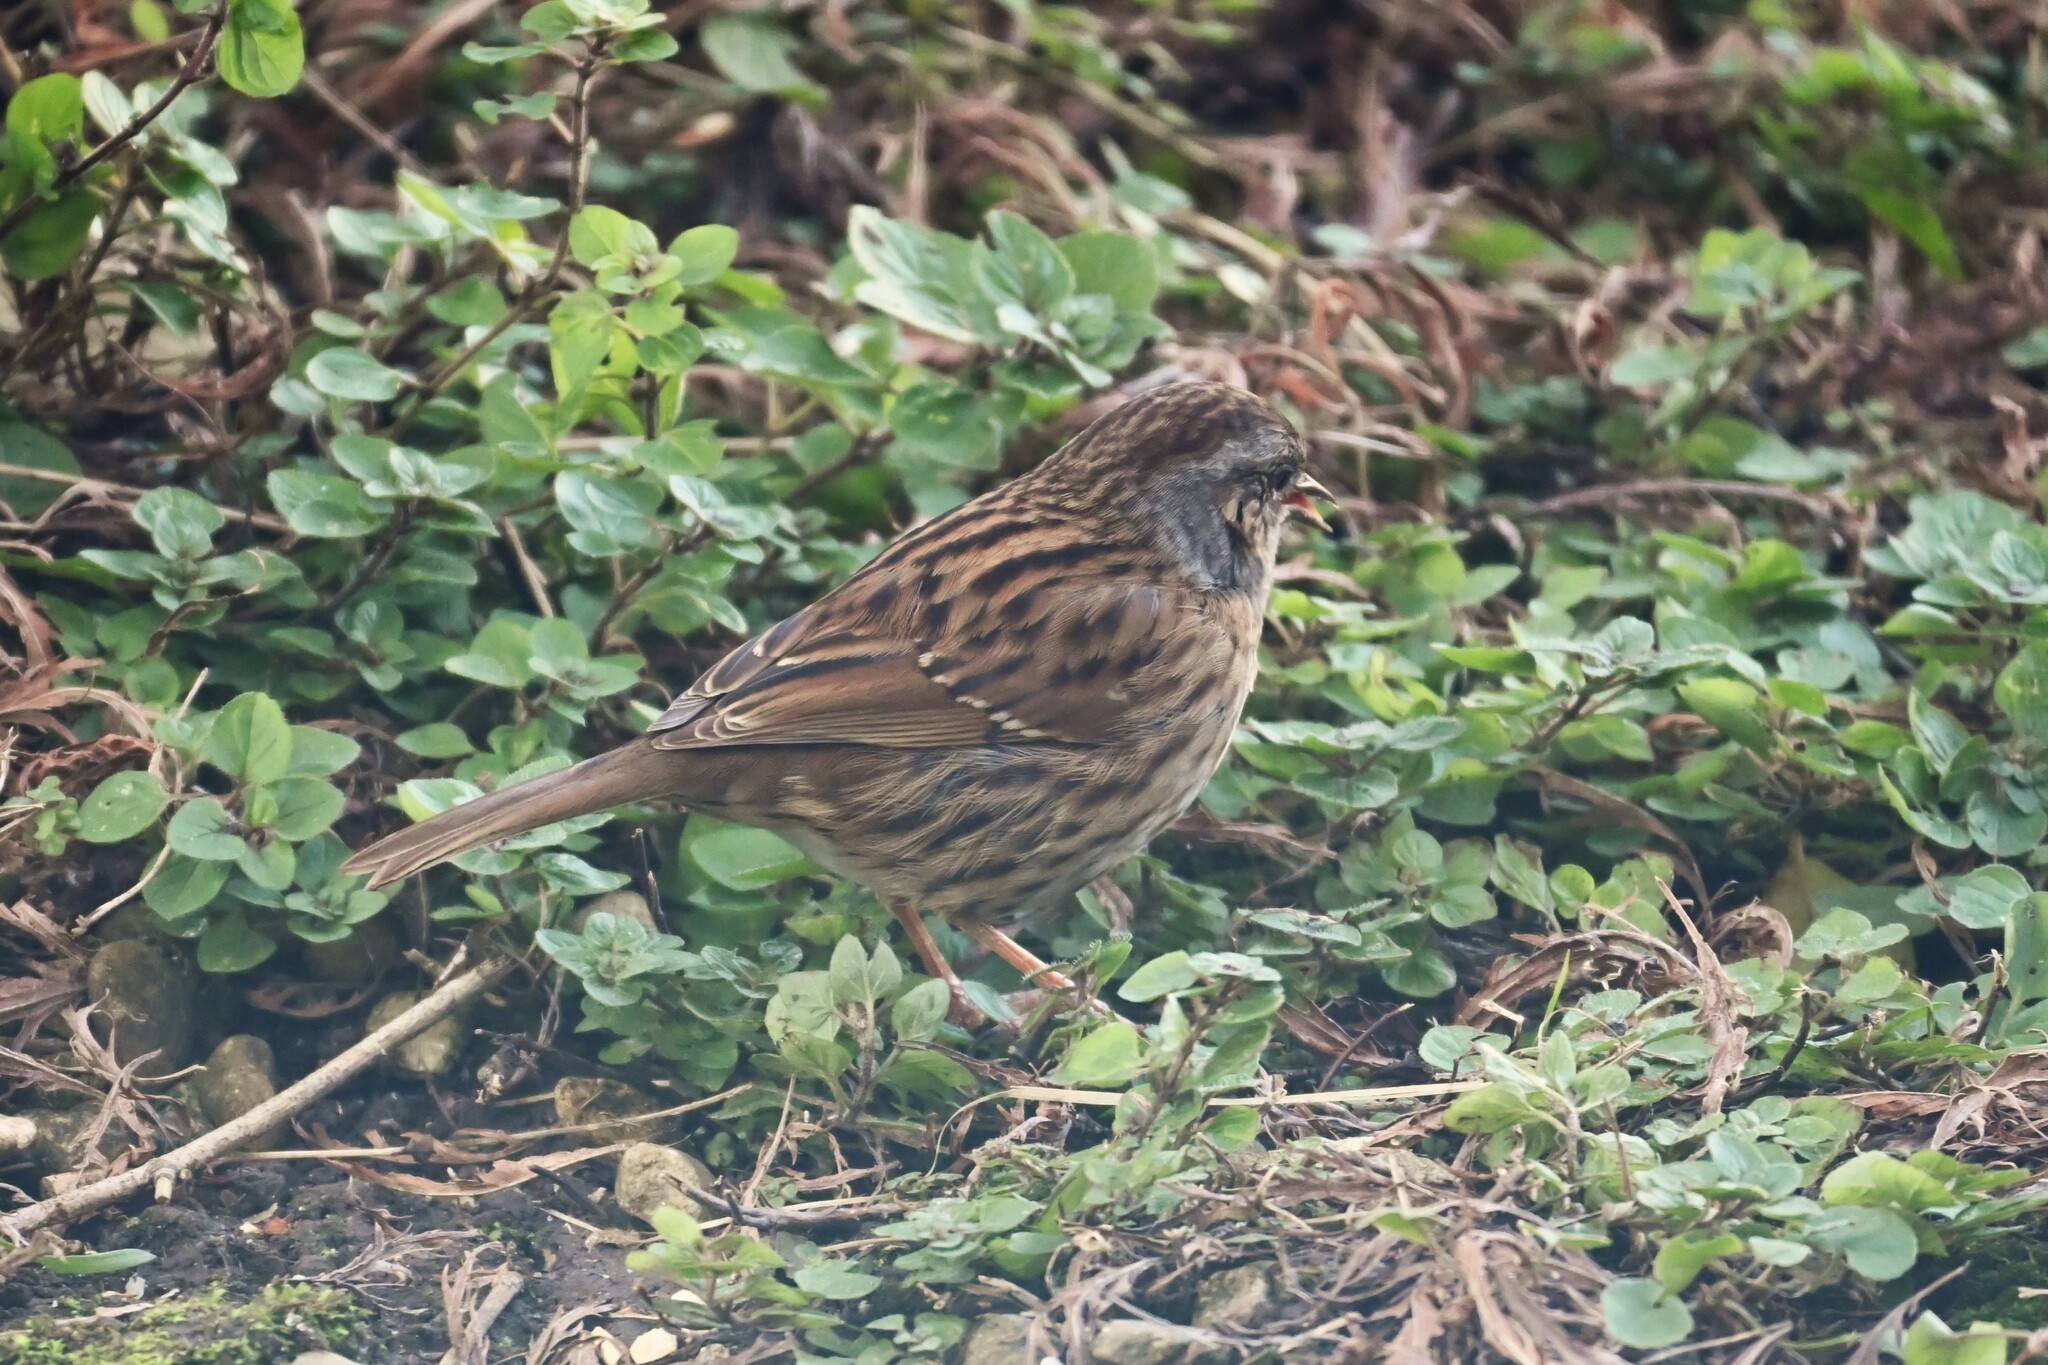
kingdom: Animalia
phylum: Chordata
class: Aves
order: Passeriformes
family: Prunellidae
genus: Prunella
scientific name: Prunella modularis
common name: Dunnock
